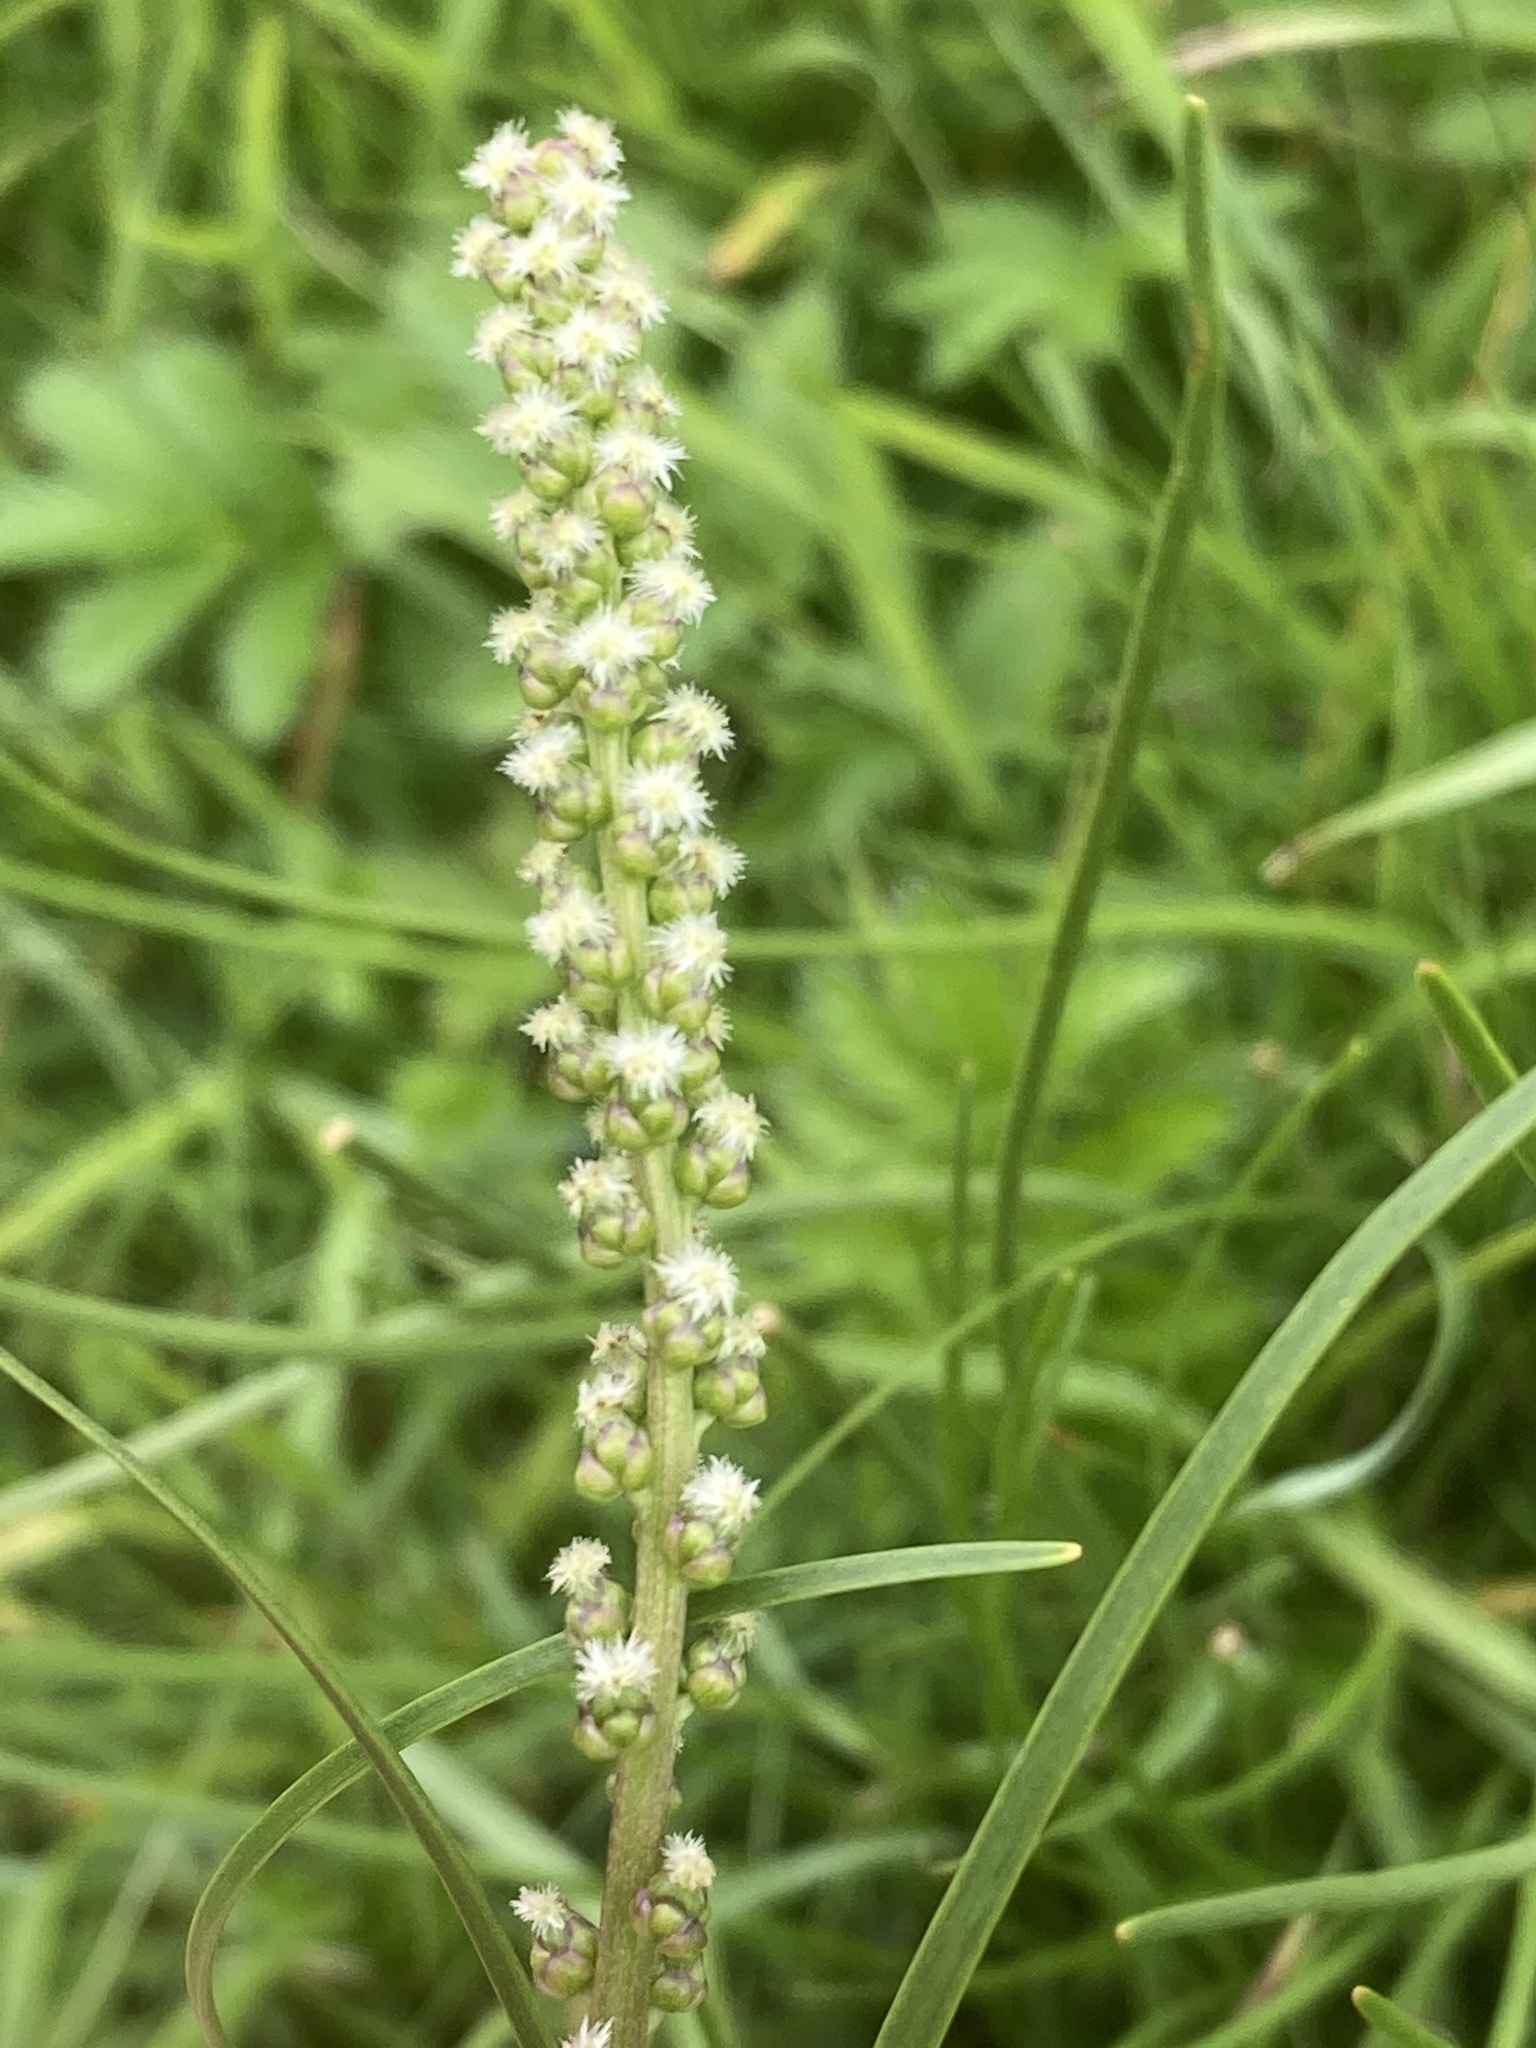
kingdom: Plantae
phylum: Tracheophyta
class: Liliopsida
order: Alismatales
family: Juncaginaceae
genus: Triglochin
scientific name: Triglochin maritima
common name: Sea arrowgrass
